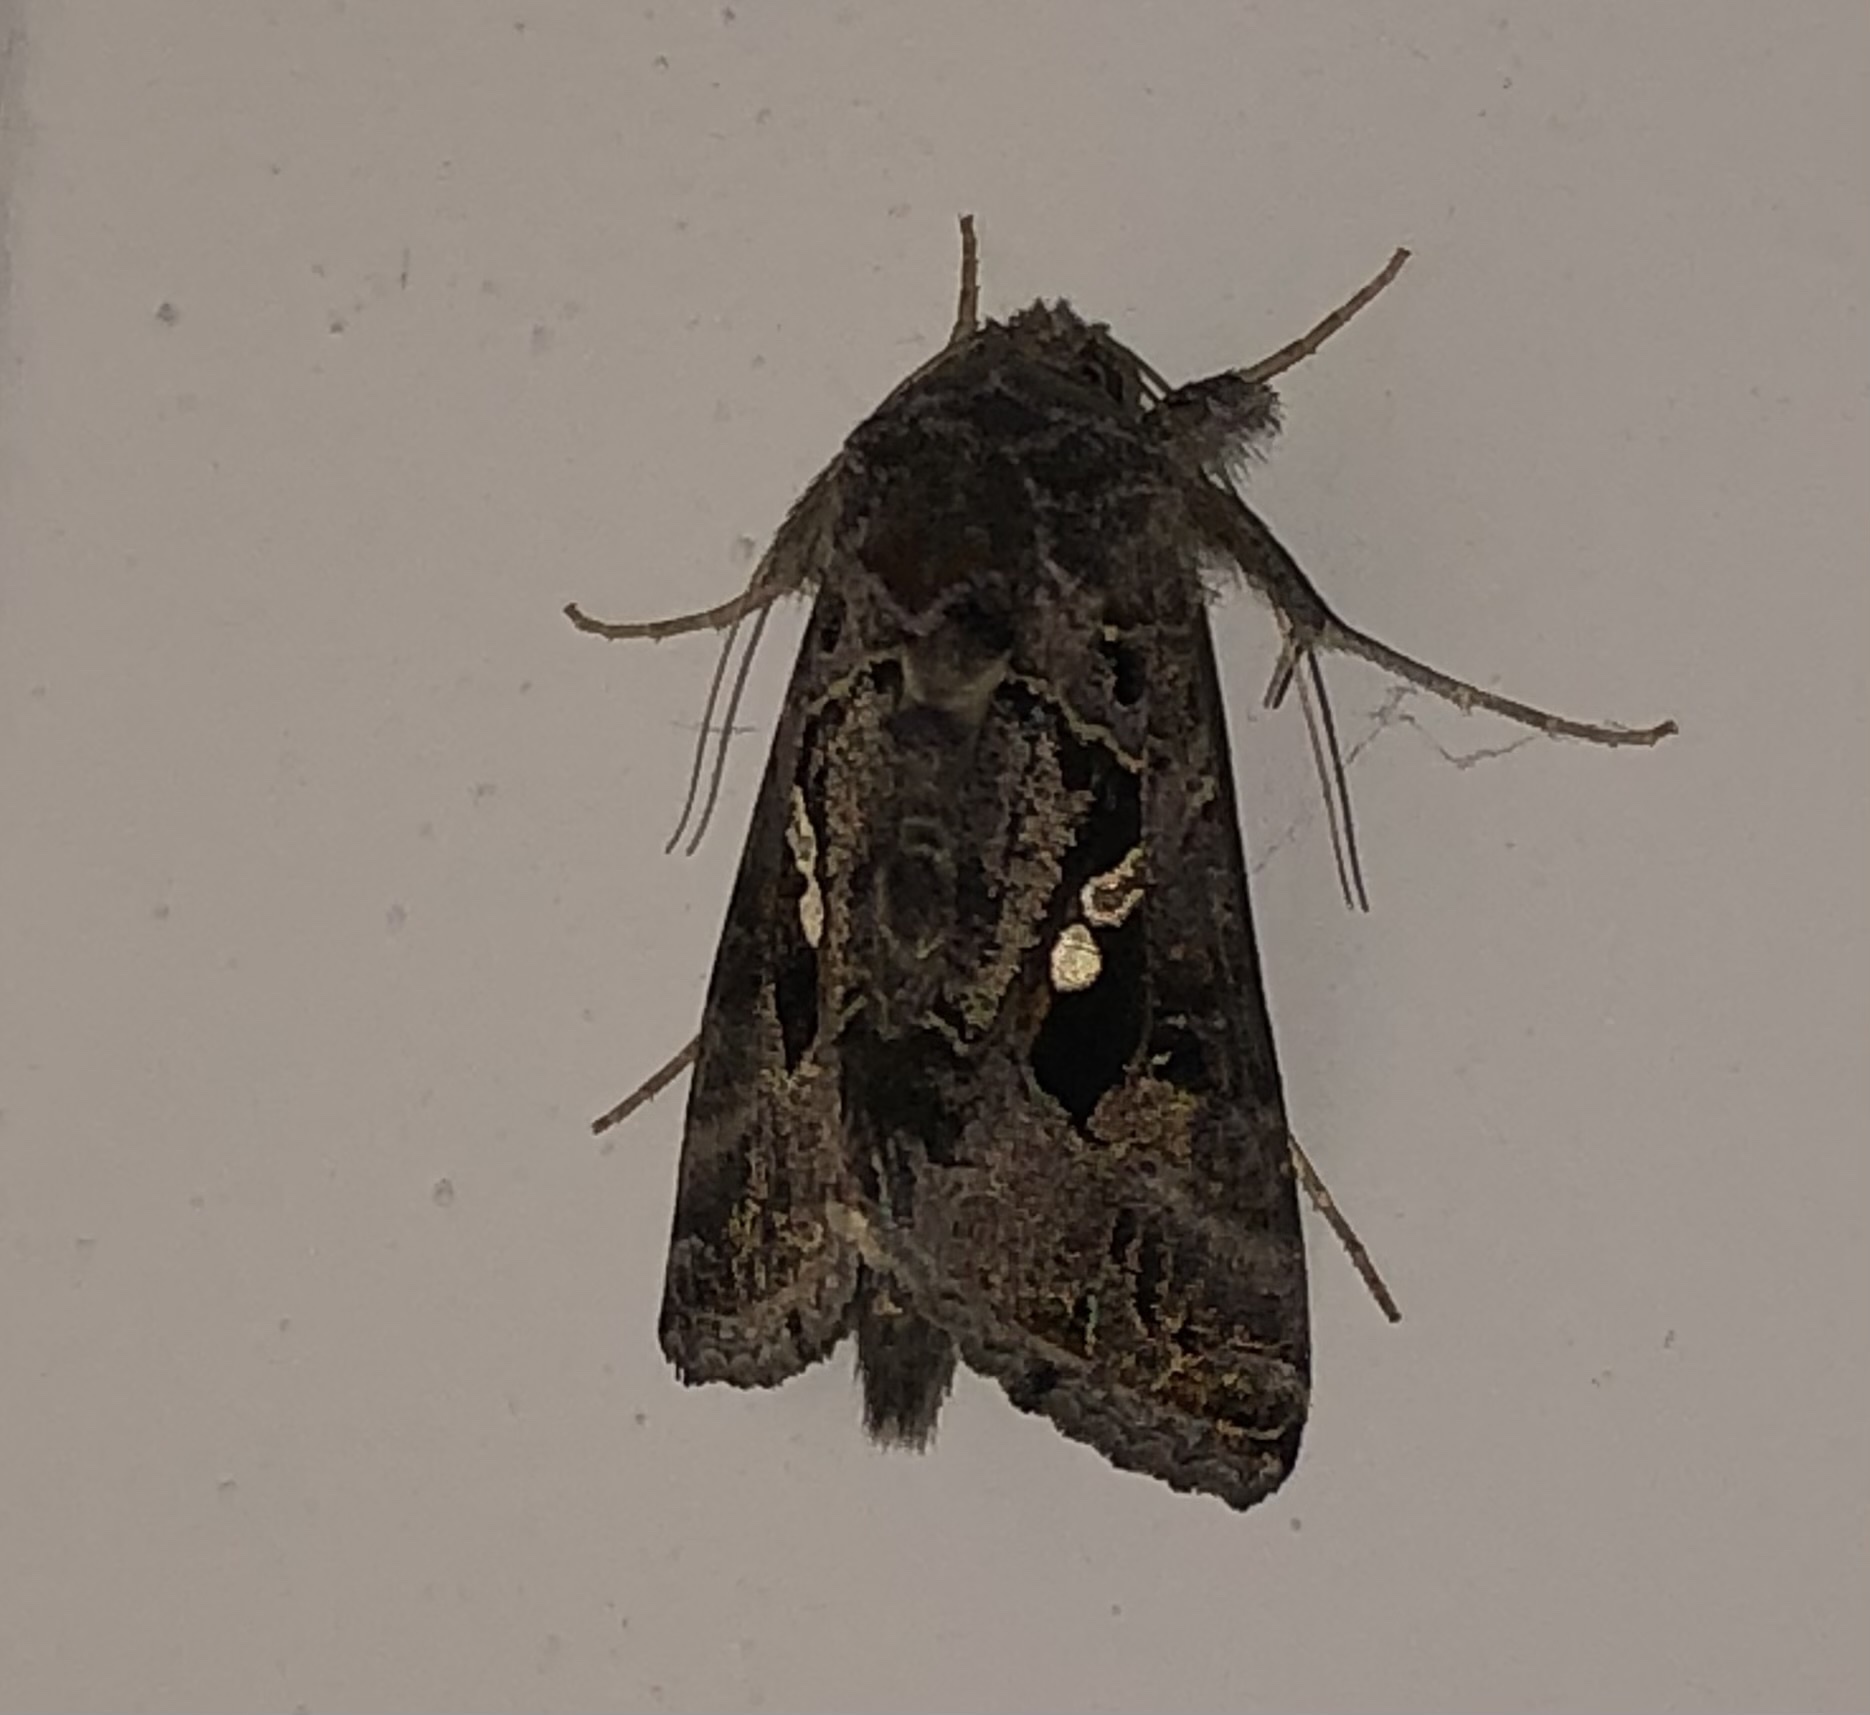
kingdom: Animalia
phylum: Arthropoda
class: Insecta
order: Lepidoptera
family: Noctuidae
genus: Chrysodeixis
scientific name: Chrysodeixis includens
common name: Cutworm moth
